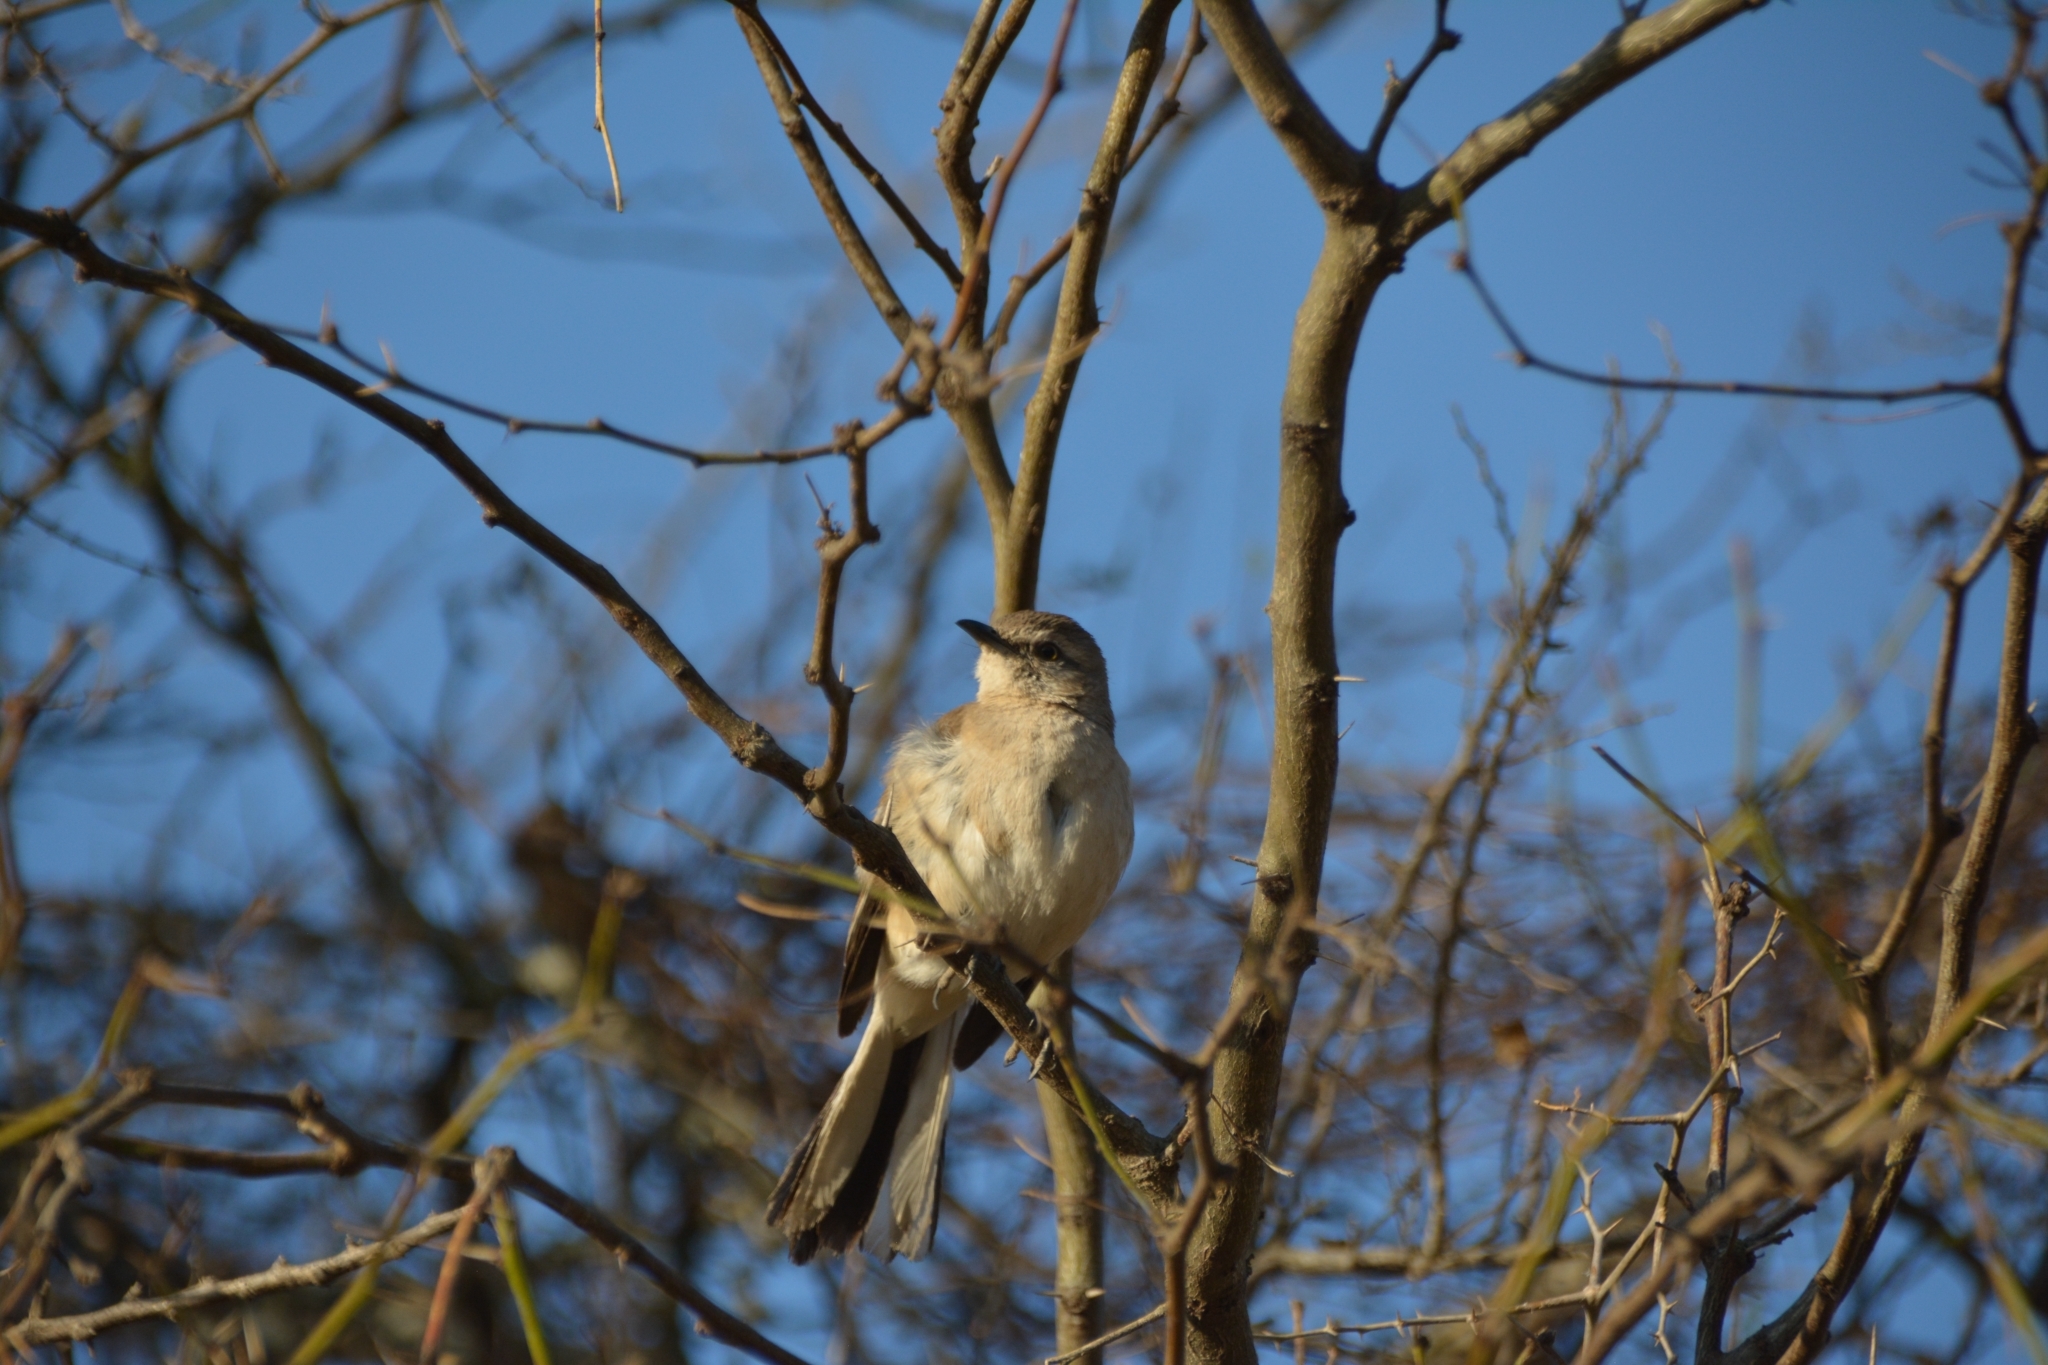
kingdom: Animalia
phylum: Chordata
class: Aves
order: Passeriformes
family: Mimidae
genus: Mimus
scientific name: Mimus triurus
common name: White-banded mockingbird
